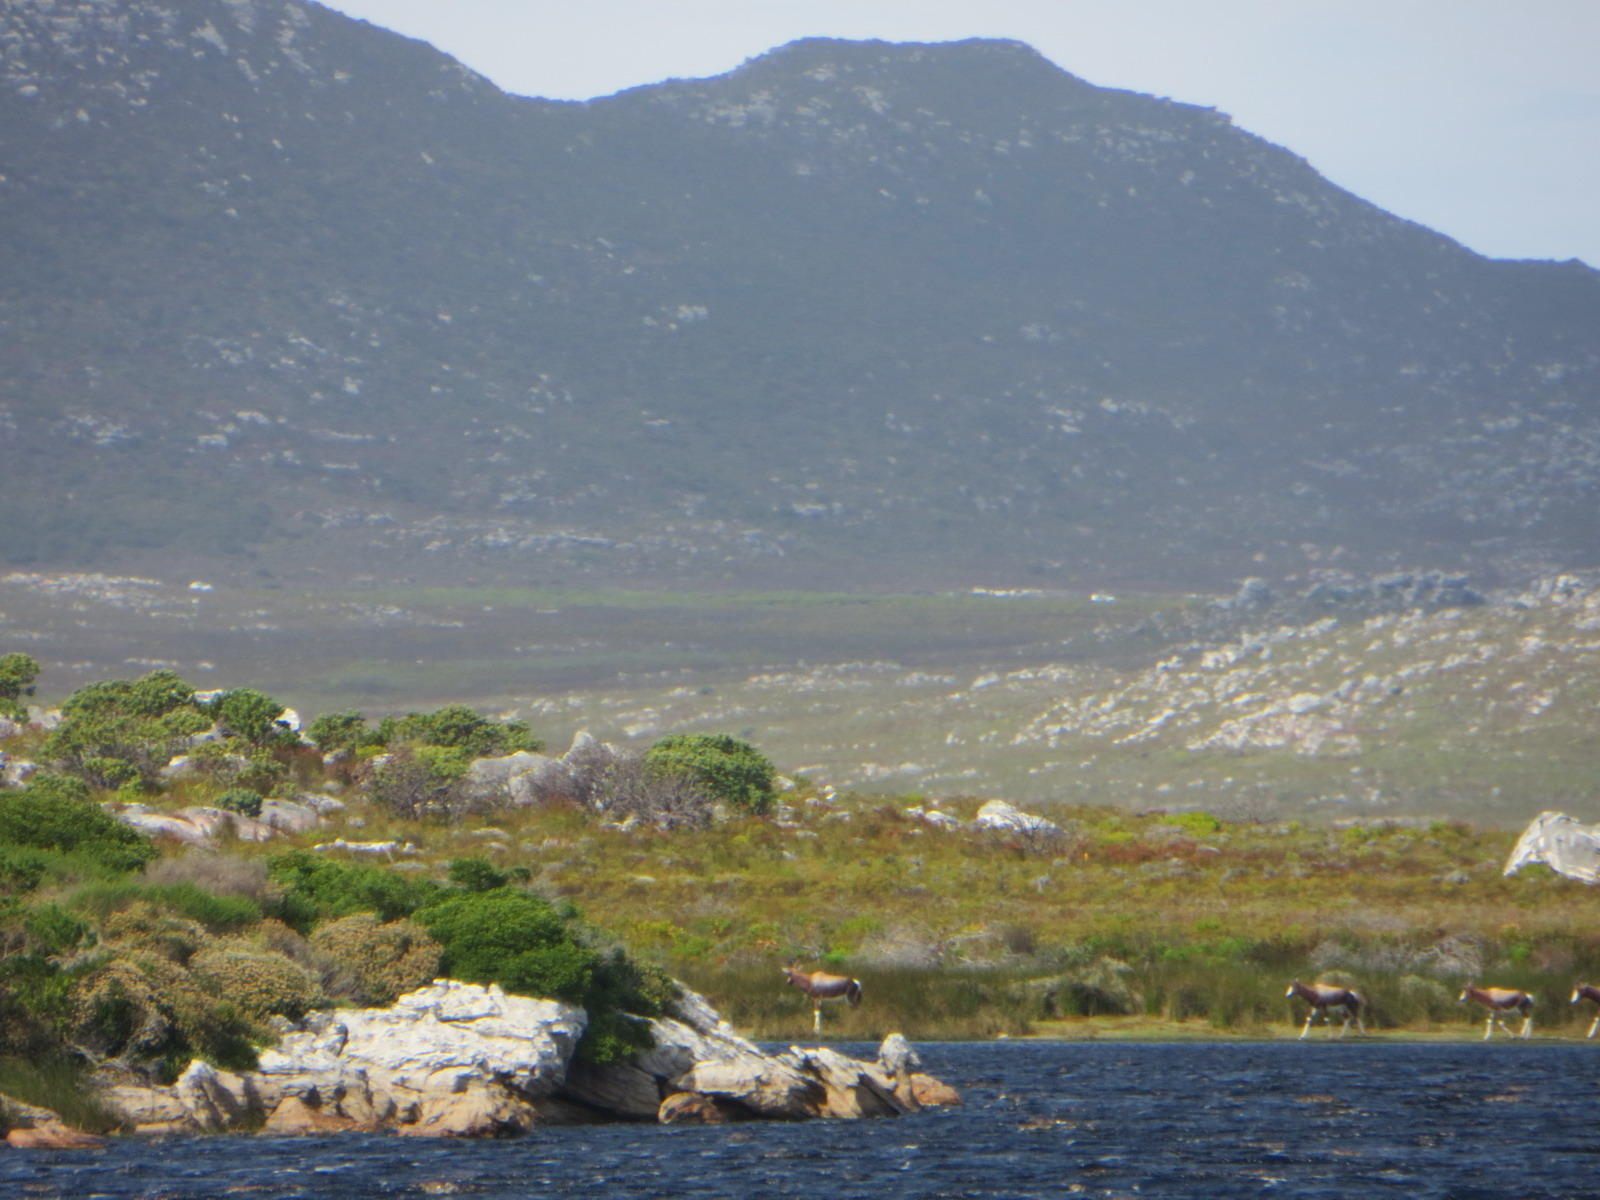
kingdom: Animalia
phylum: Chordata
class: Mammalia
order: Artiodactyla
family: Bovidae
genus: Damaliscus
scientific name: Damaliscus pygargus
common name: Bontebok
